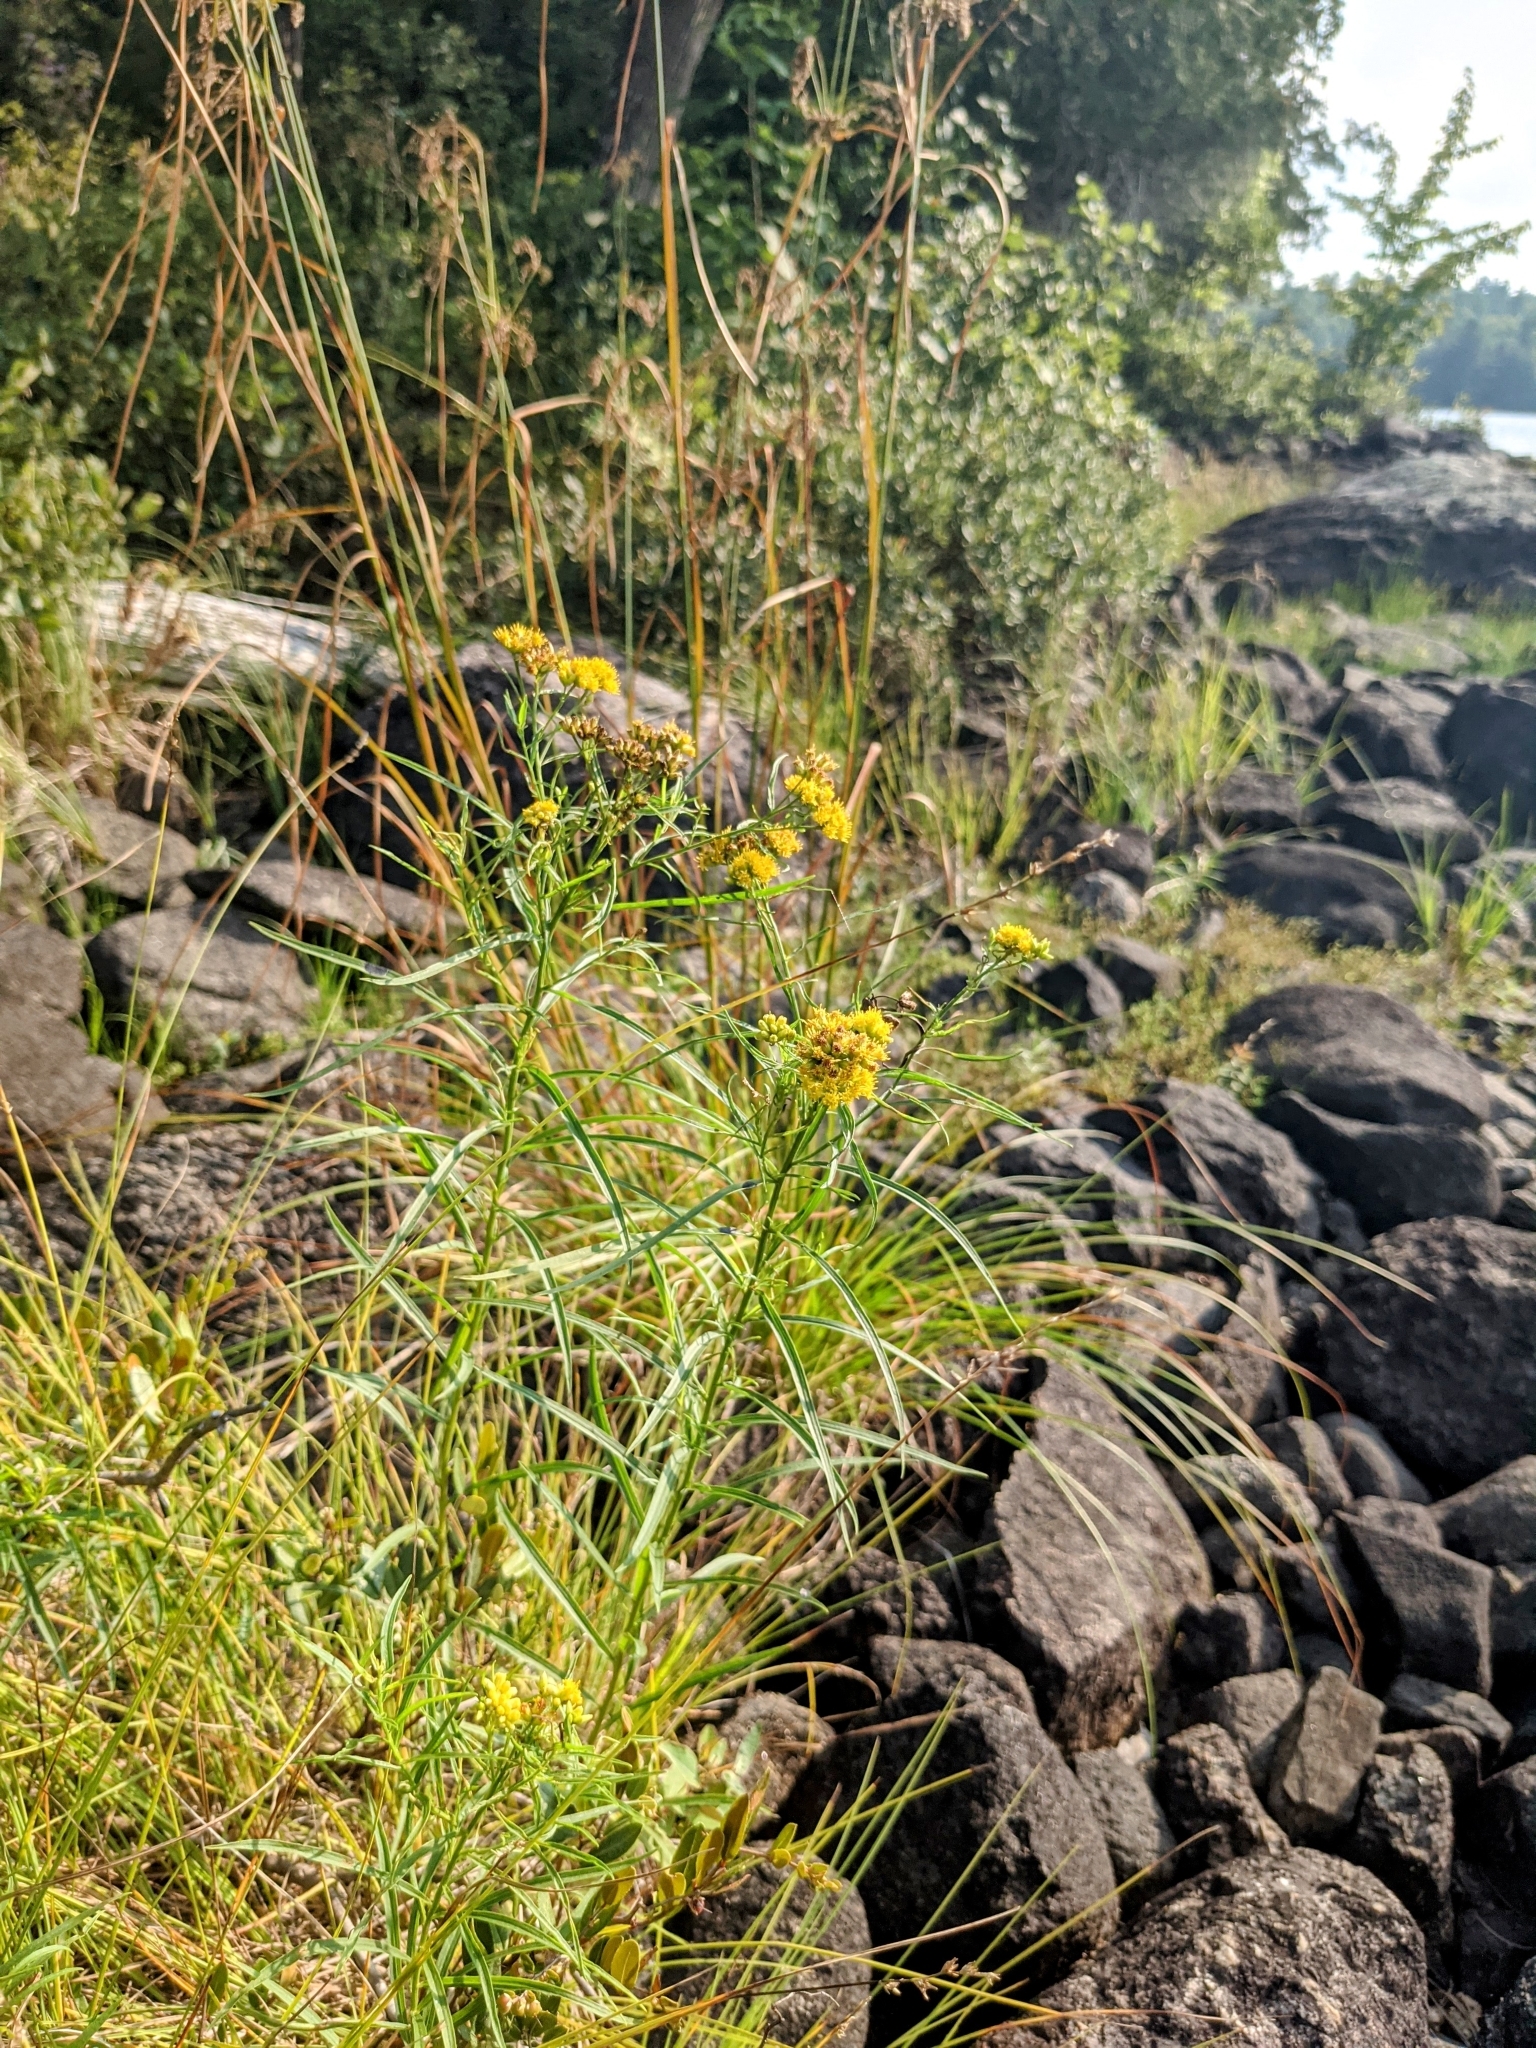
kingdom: Plantae
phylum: Tracheophyta
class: Magnoliopsida
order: Asterales
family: Asteraceae
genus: Euthamia
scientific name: Euthamia graminifolia
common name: Common goldentop
